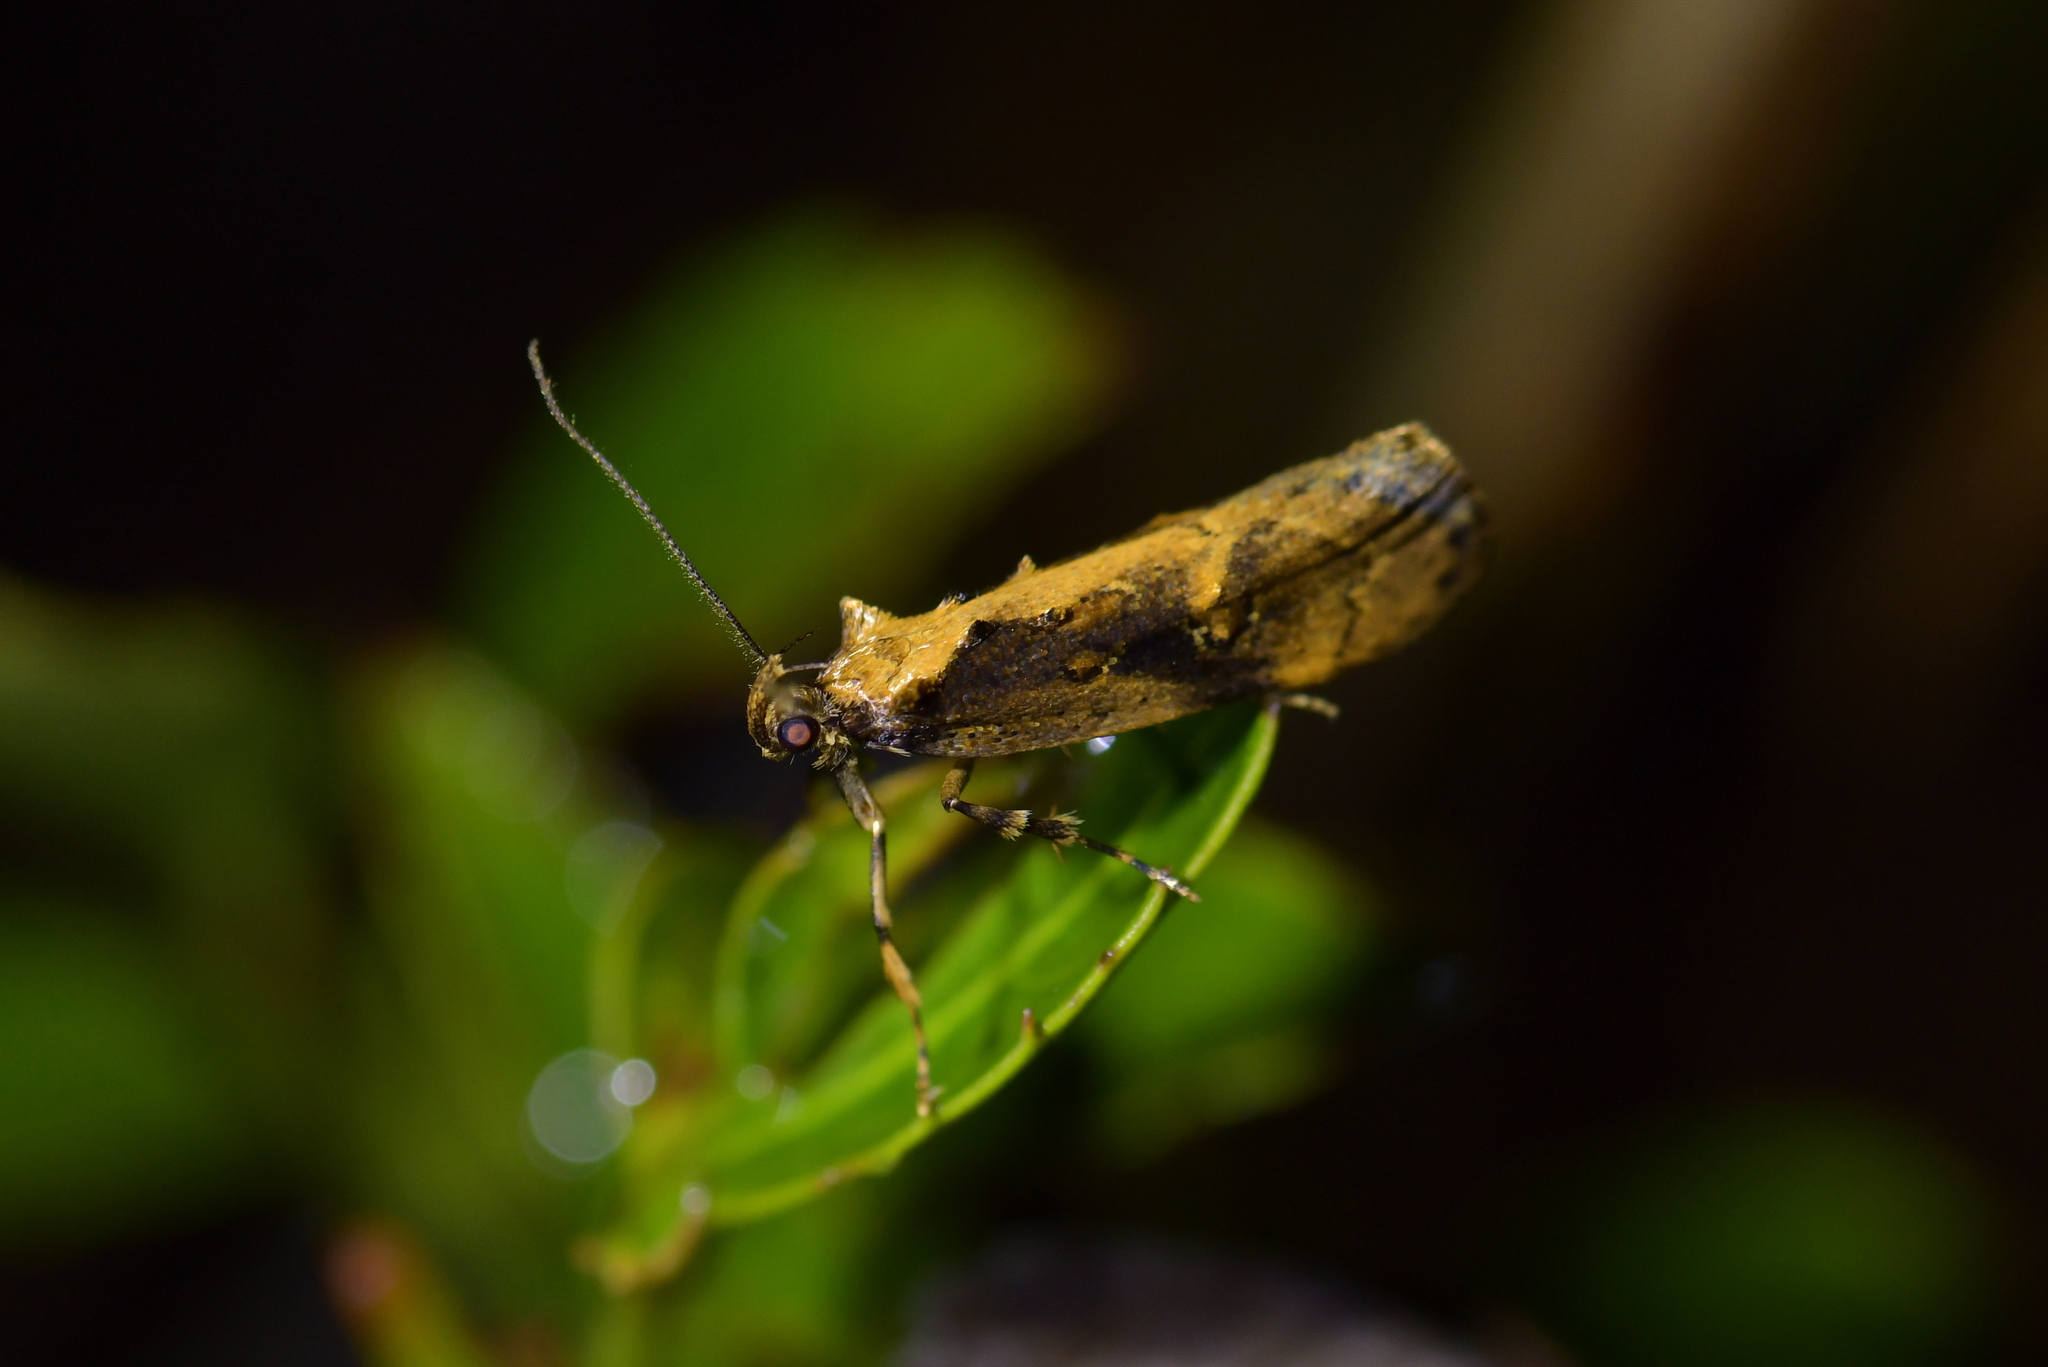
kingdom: Animalia
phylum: Arthropoda
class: Insecta
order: Lepidoptera
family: Oecophoridae
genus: Atomotricha
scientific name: Atomotricha isogama
